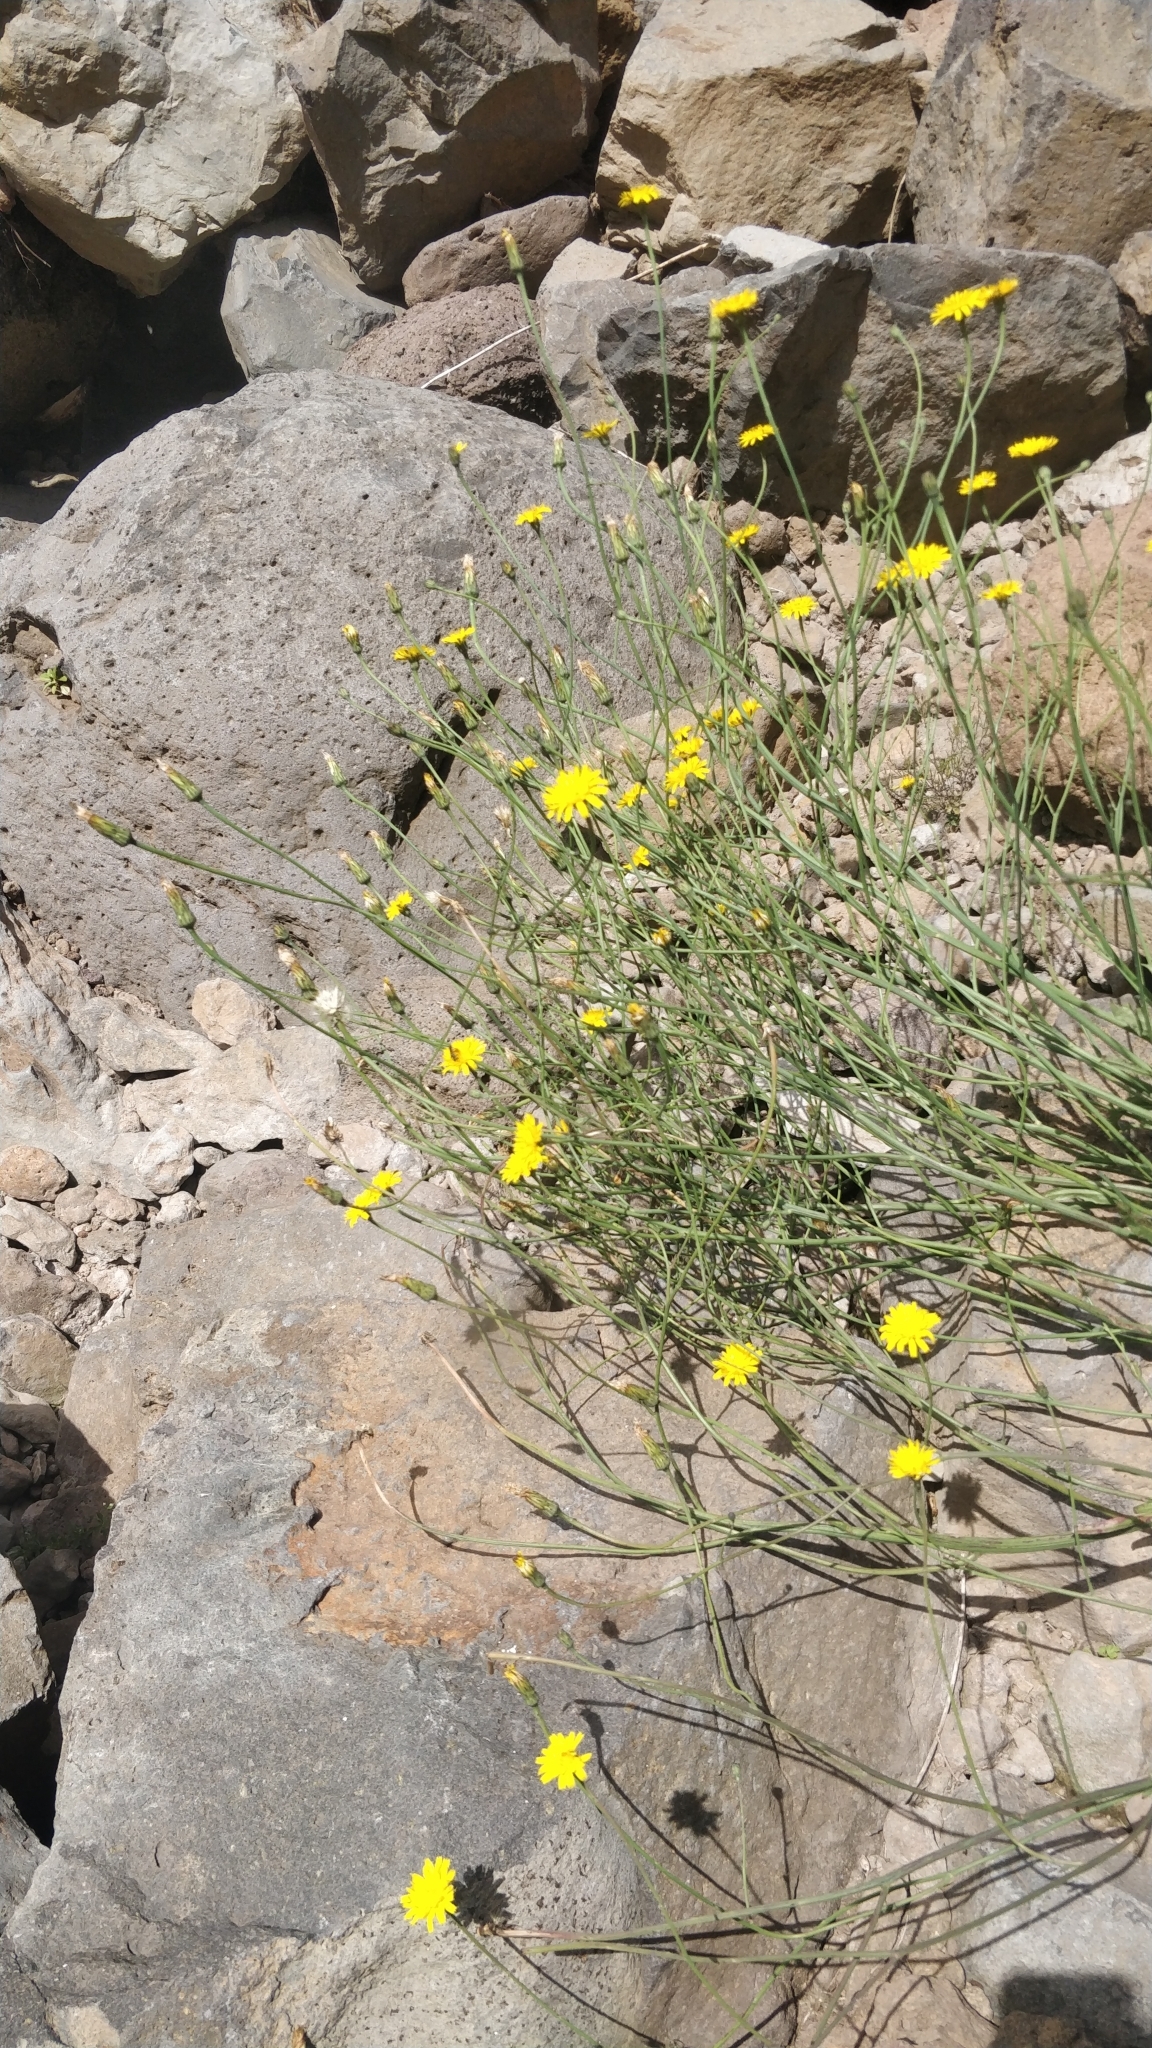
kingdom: Plantae
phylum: Tracheophyta
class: Magnoliopsida
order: Asterales
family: Asteraceae
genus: Hypochaeris
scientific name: Hypochaeris radicata
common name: Flatweed
